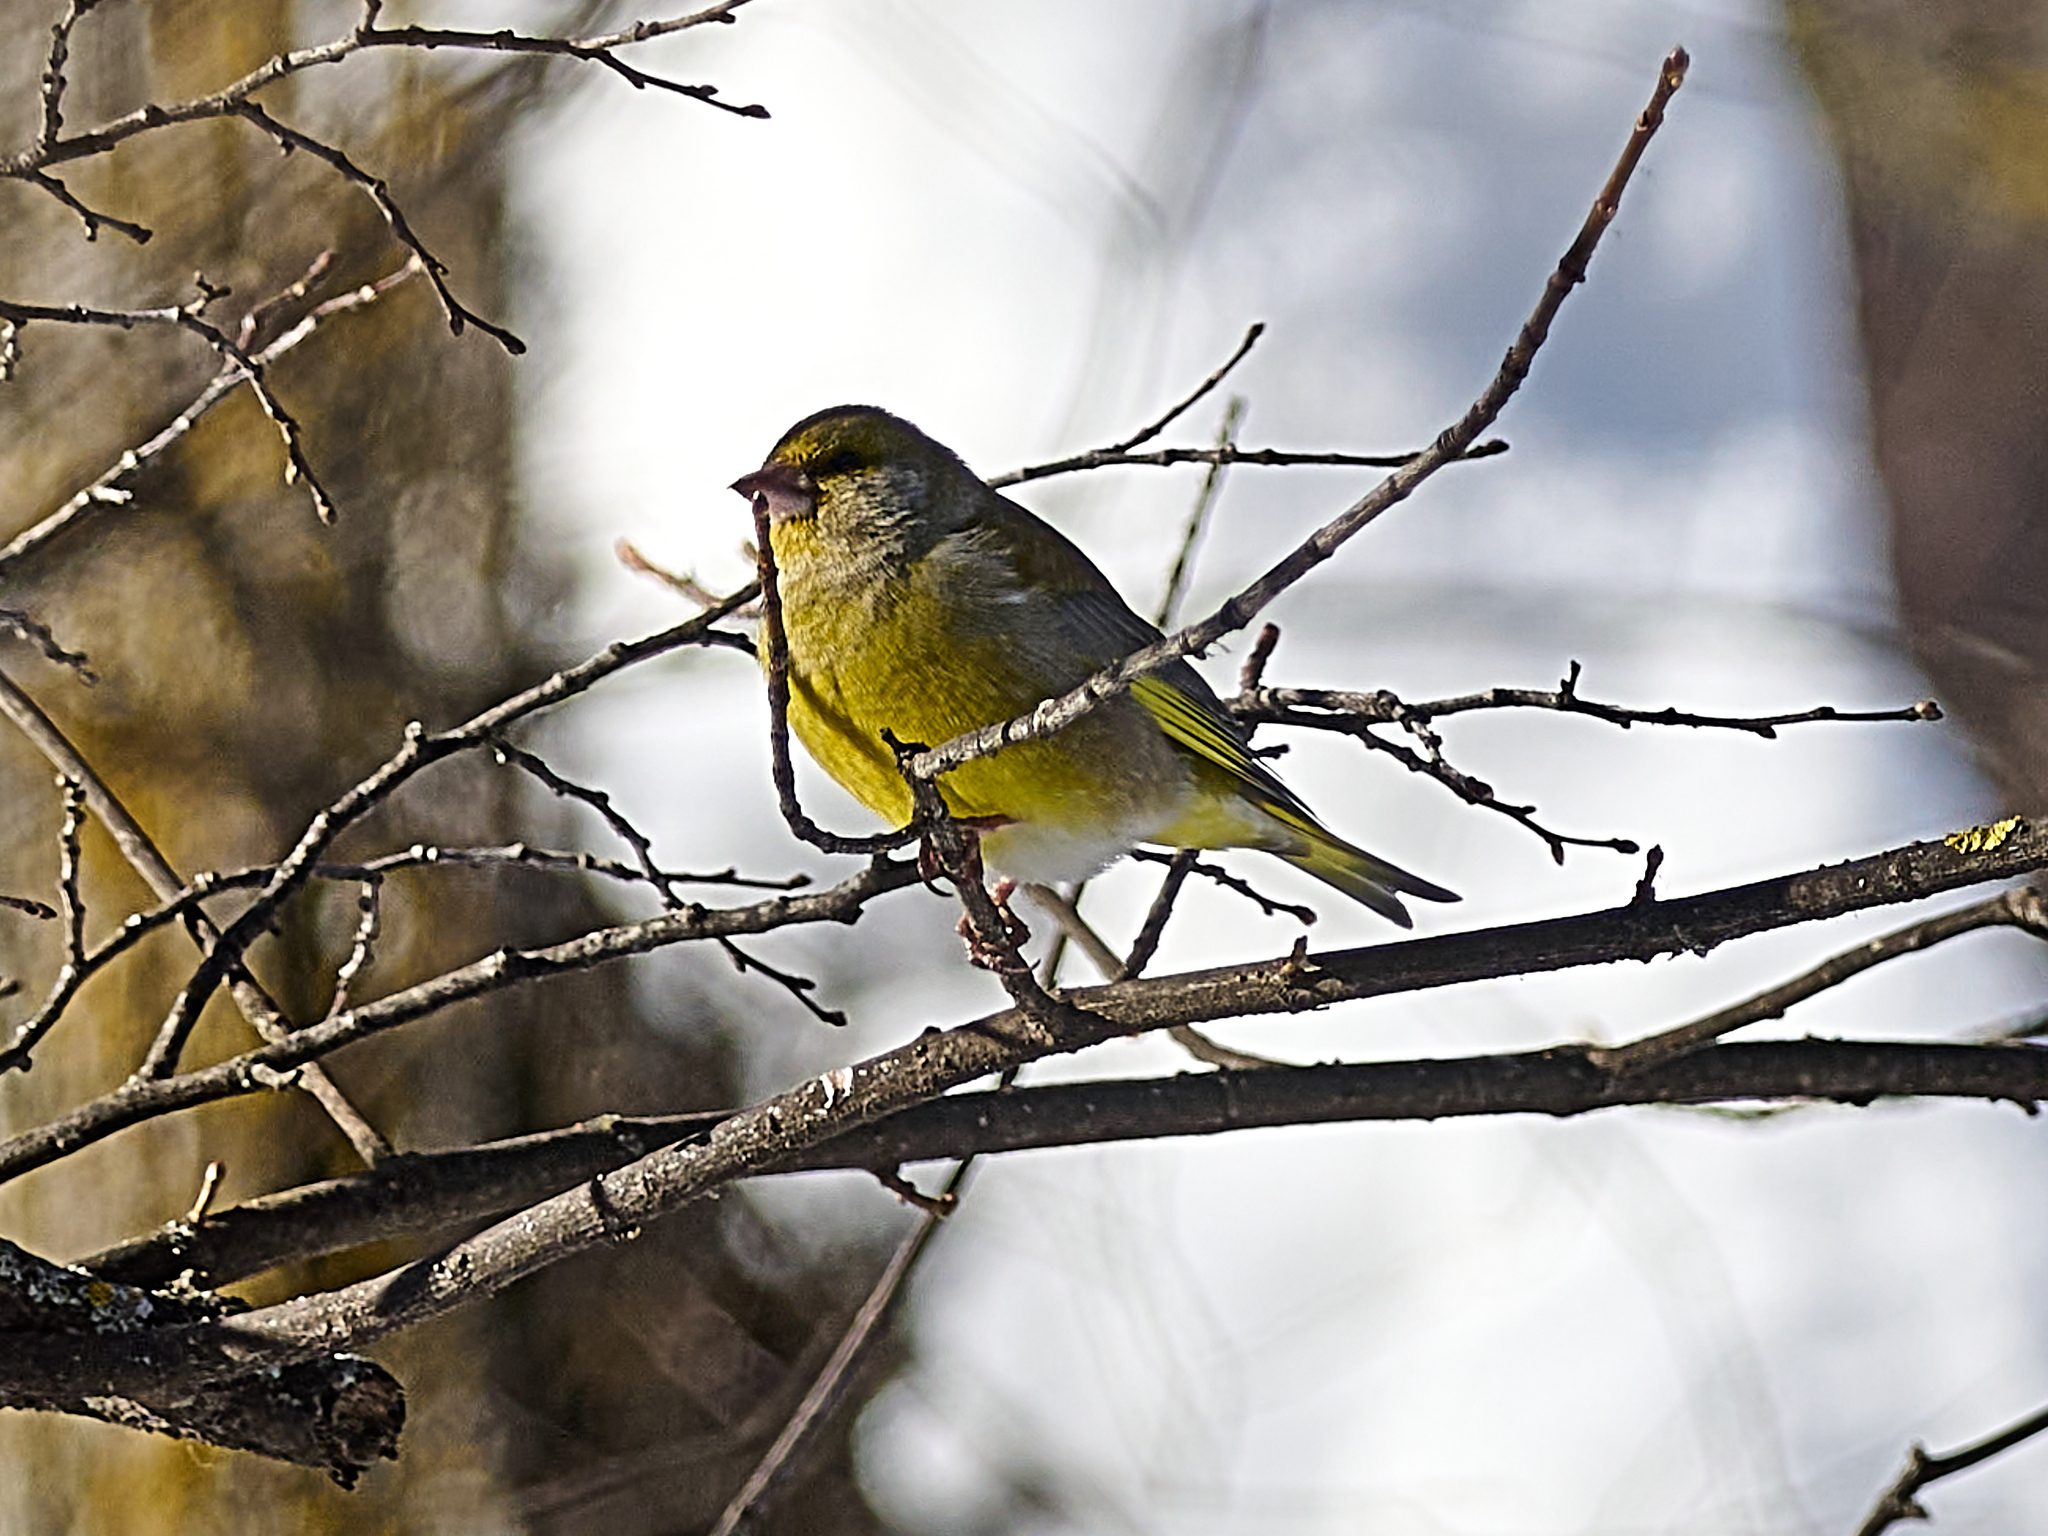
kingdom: Plantae
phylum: Tracheophyta
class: Liliopsida
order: Poales
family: Poaceae
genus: Chloris
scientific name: Chloris chloris
